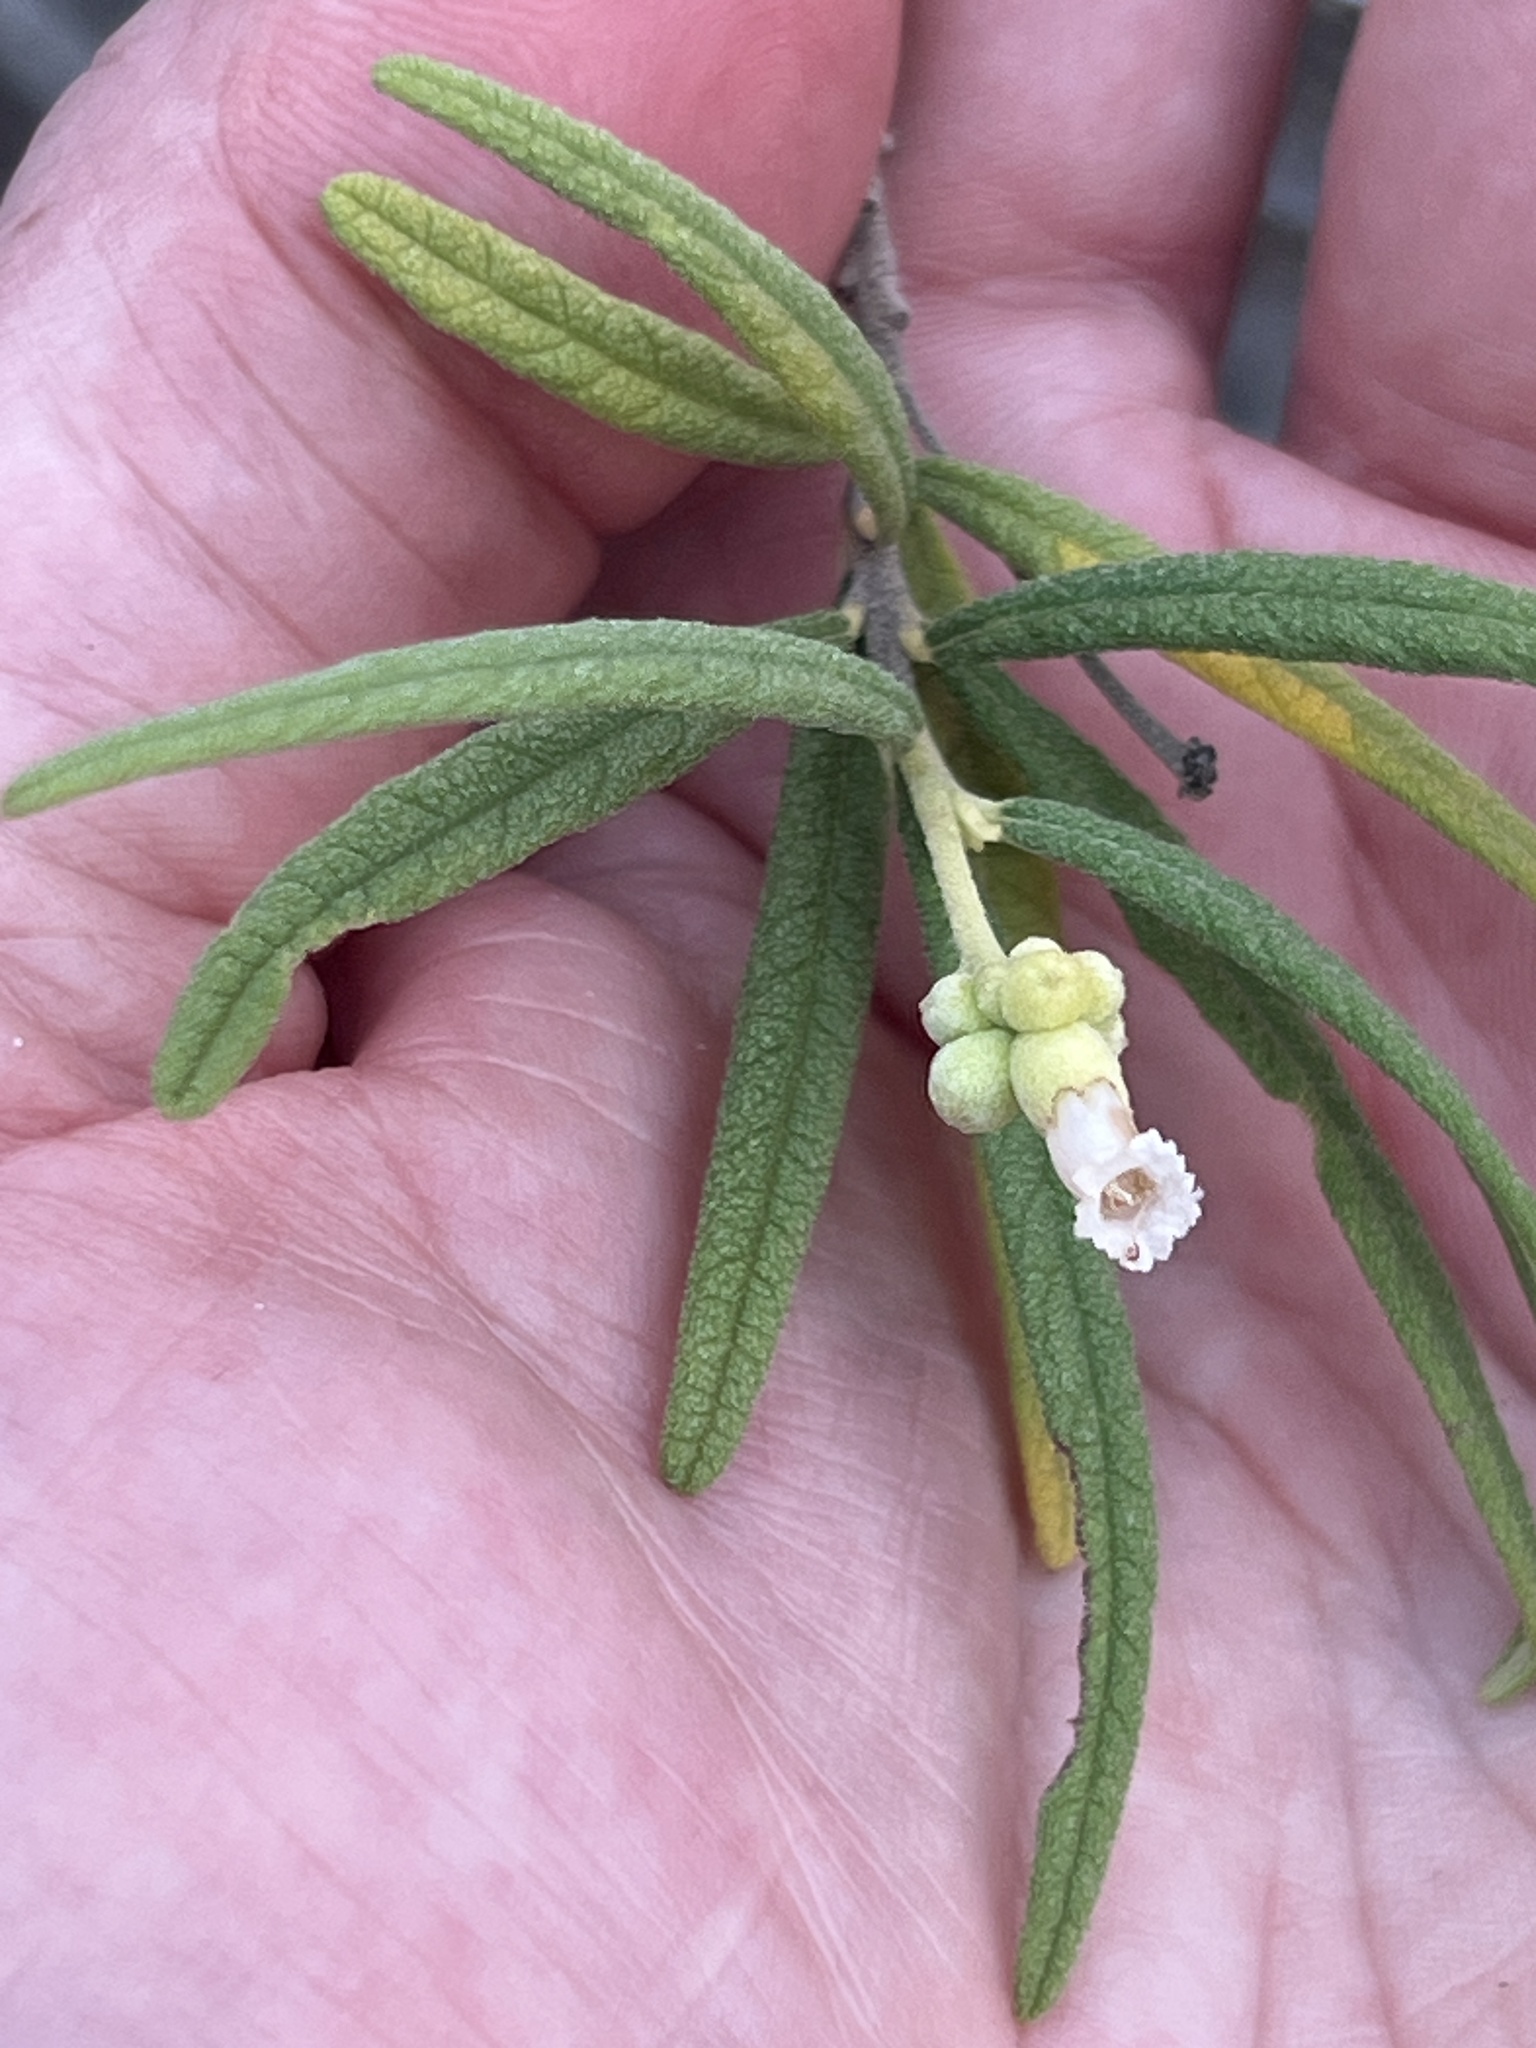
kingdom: Plantae
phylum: Tracheophyta
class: Magnoliopsida
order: Boraginales
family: Cordiaceae
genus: Varronia
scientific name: Varronia revoluta
